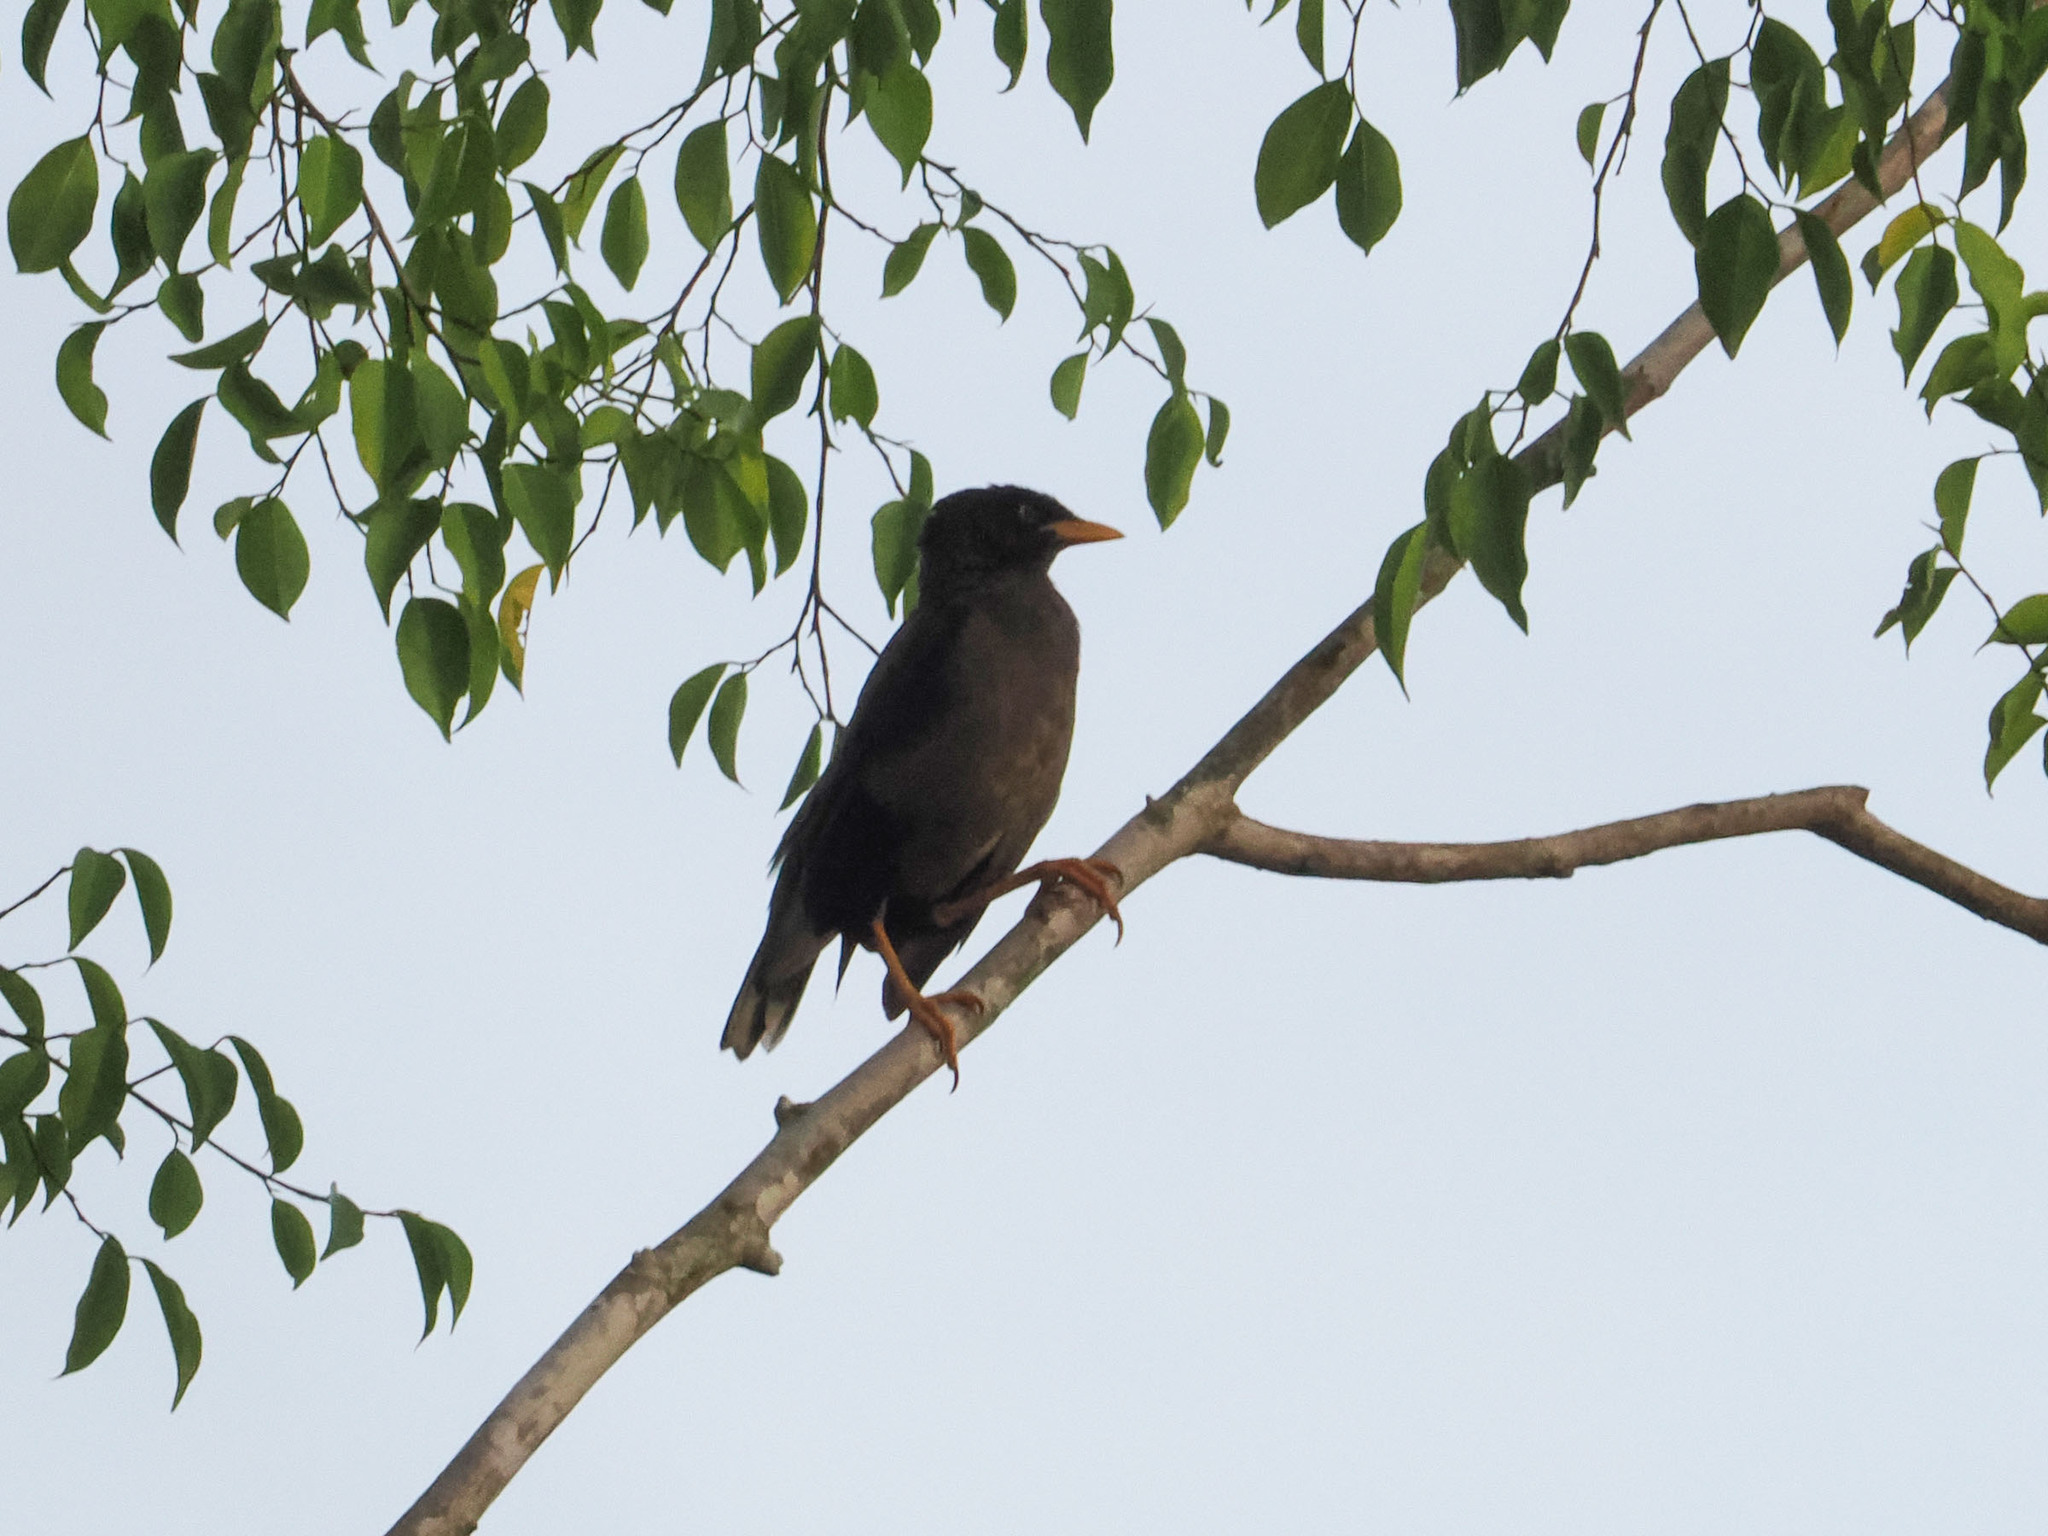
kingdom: Animalia
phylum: Chordata
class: Aves
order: Passeriformes
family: Sturnidae
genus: Acridotheres
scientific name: Acridotheres javanicus
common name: Javan myna
